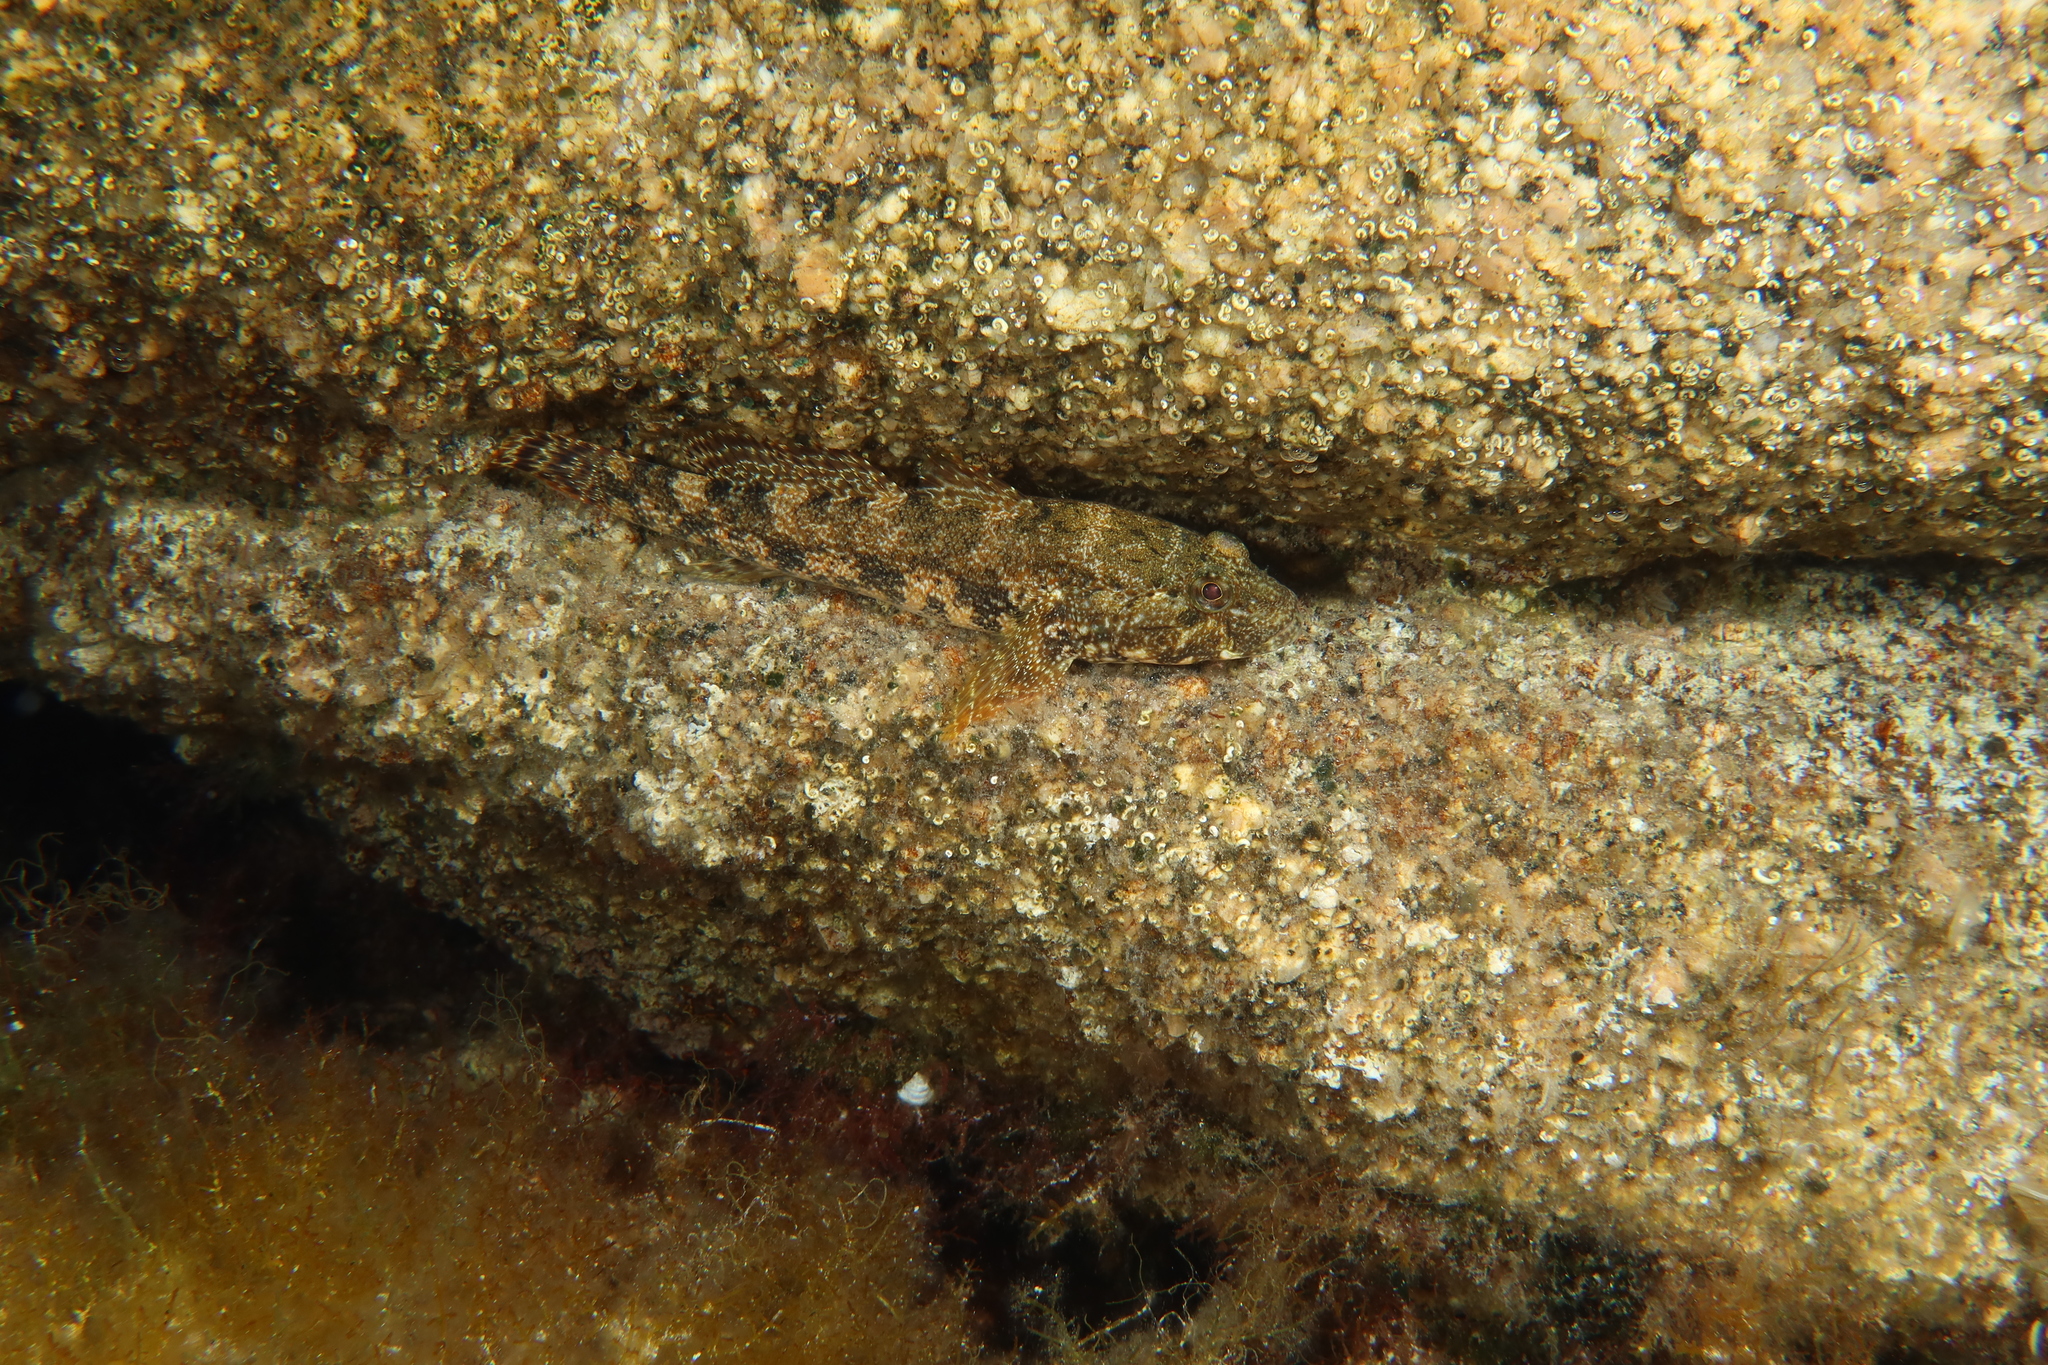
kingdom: Animalia
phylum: Chordata
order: Perciformes
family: Gobiidae
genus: Gobius
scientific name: Gobius cobitis
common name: Giant goby
